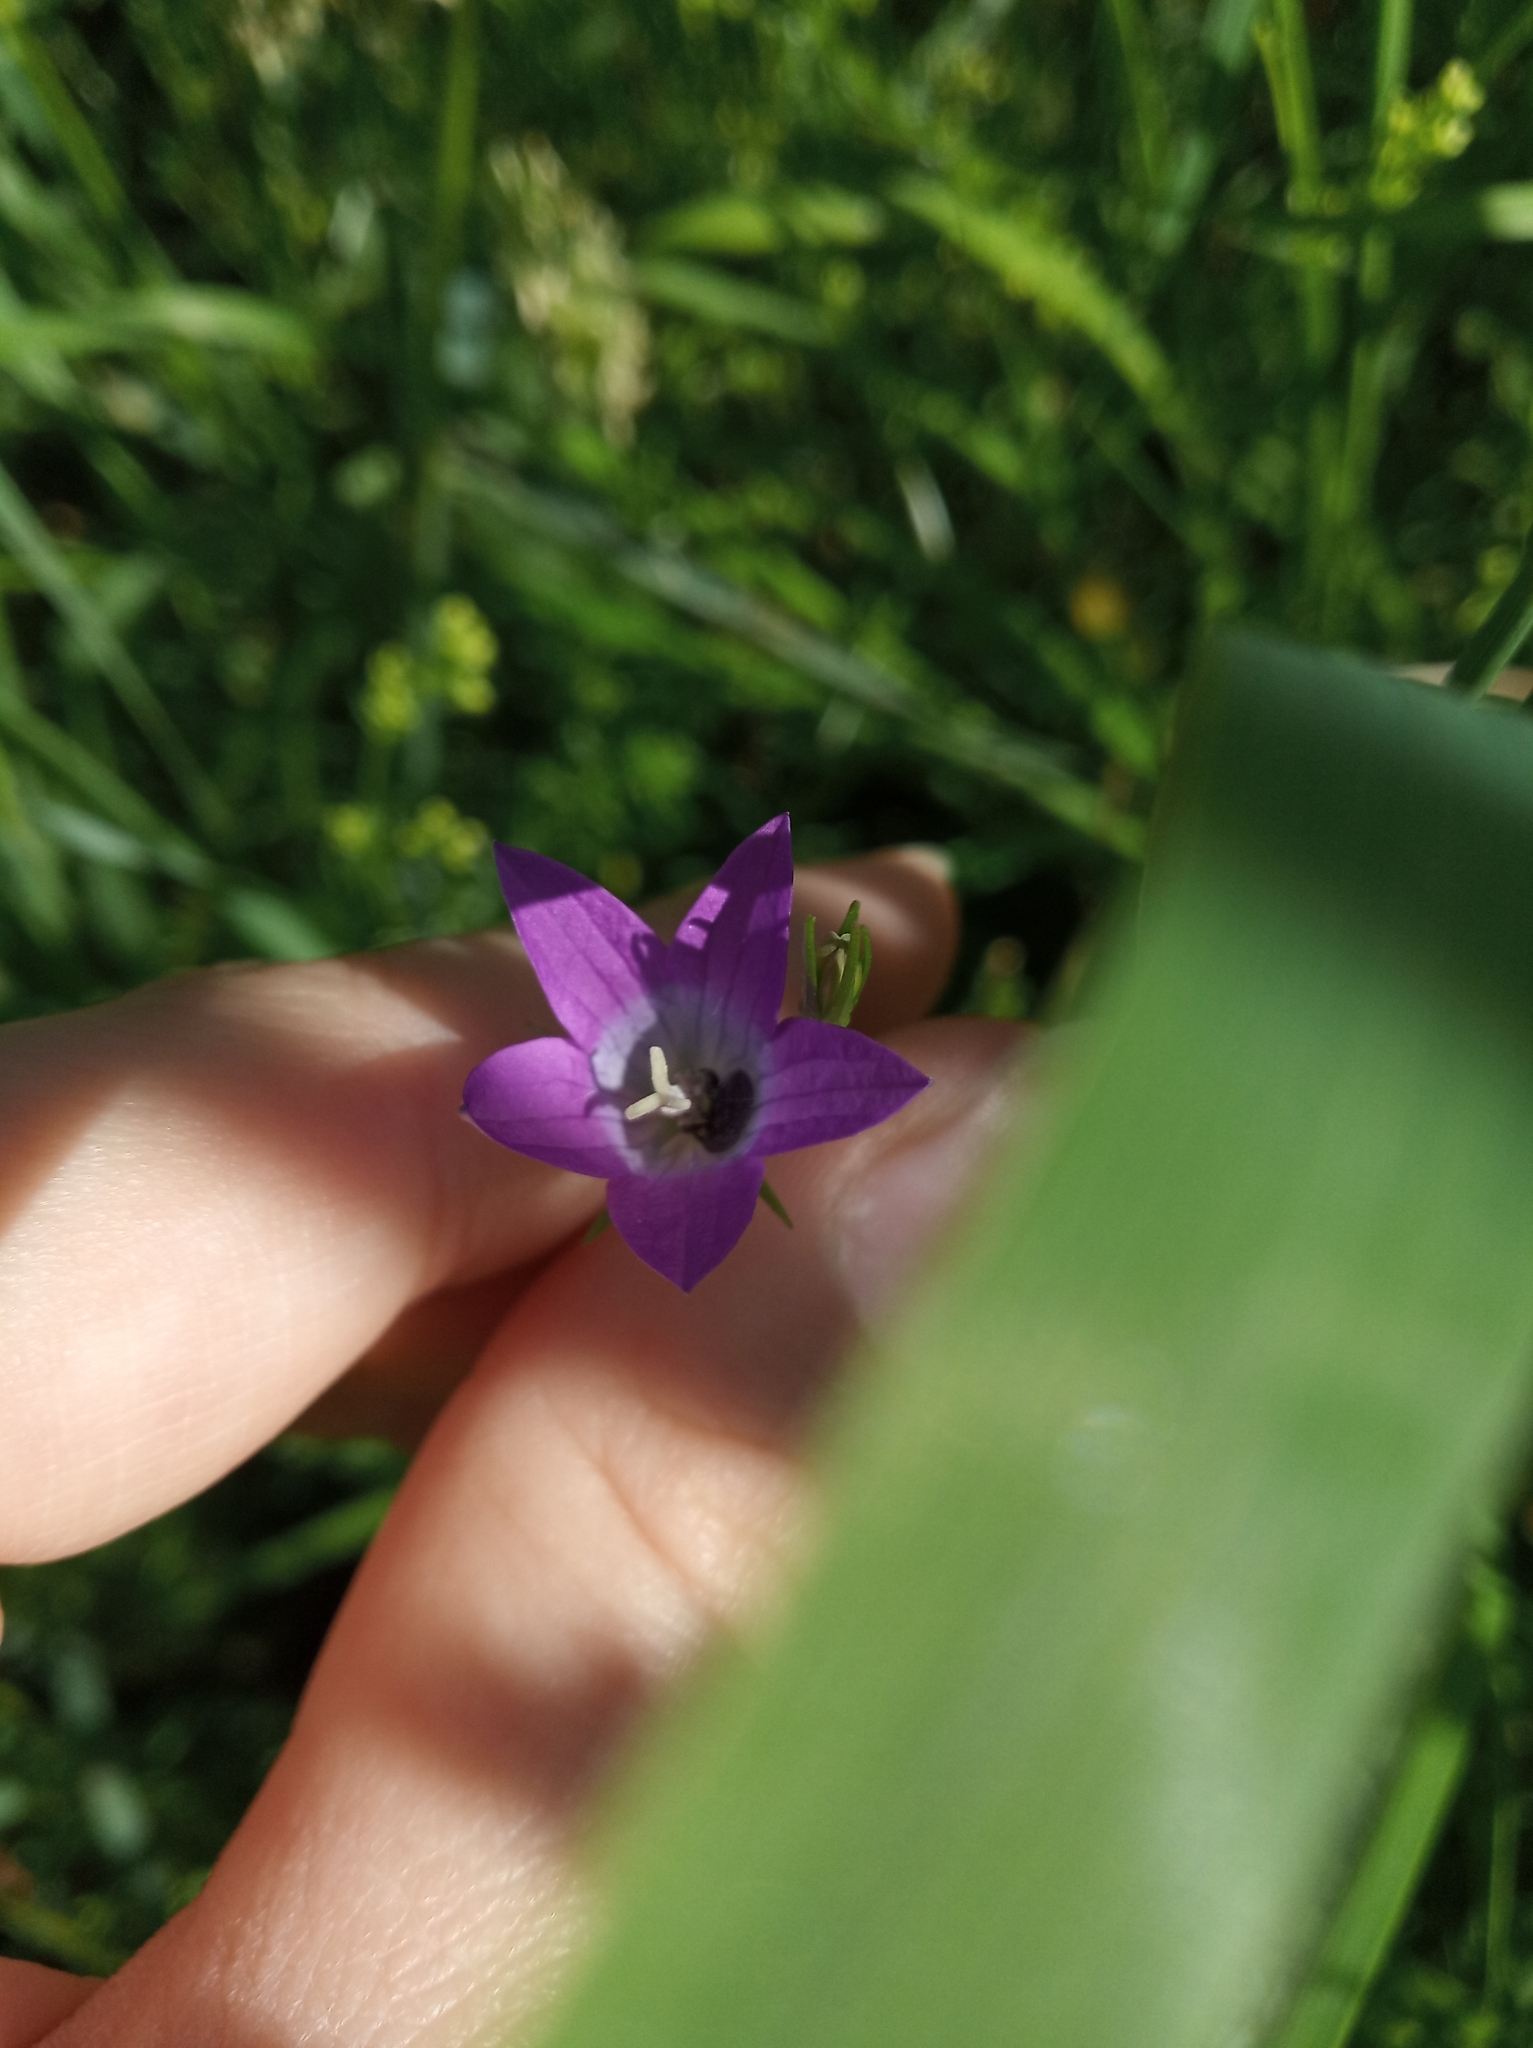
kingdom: Plantae
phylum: Tracheophyta
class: Magnoliopsida
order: Asterales
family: Campanulaceae
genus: Campanula
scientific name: Campanula patula
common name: Spreading bellflower
